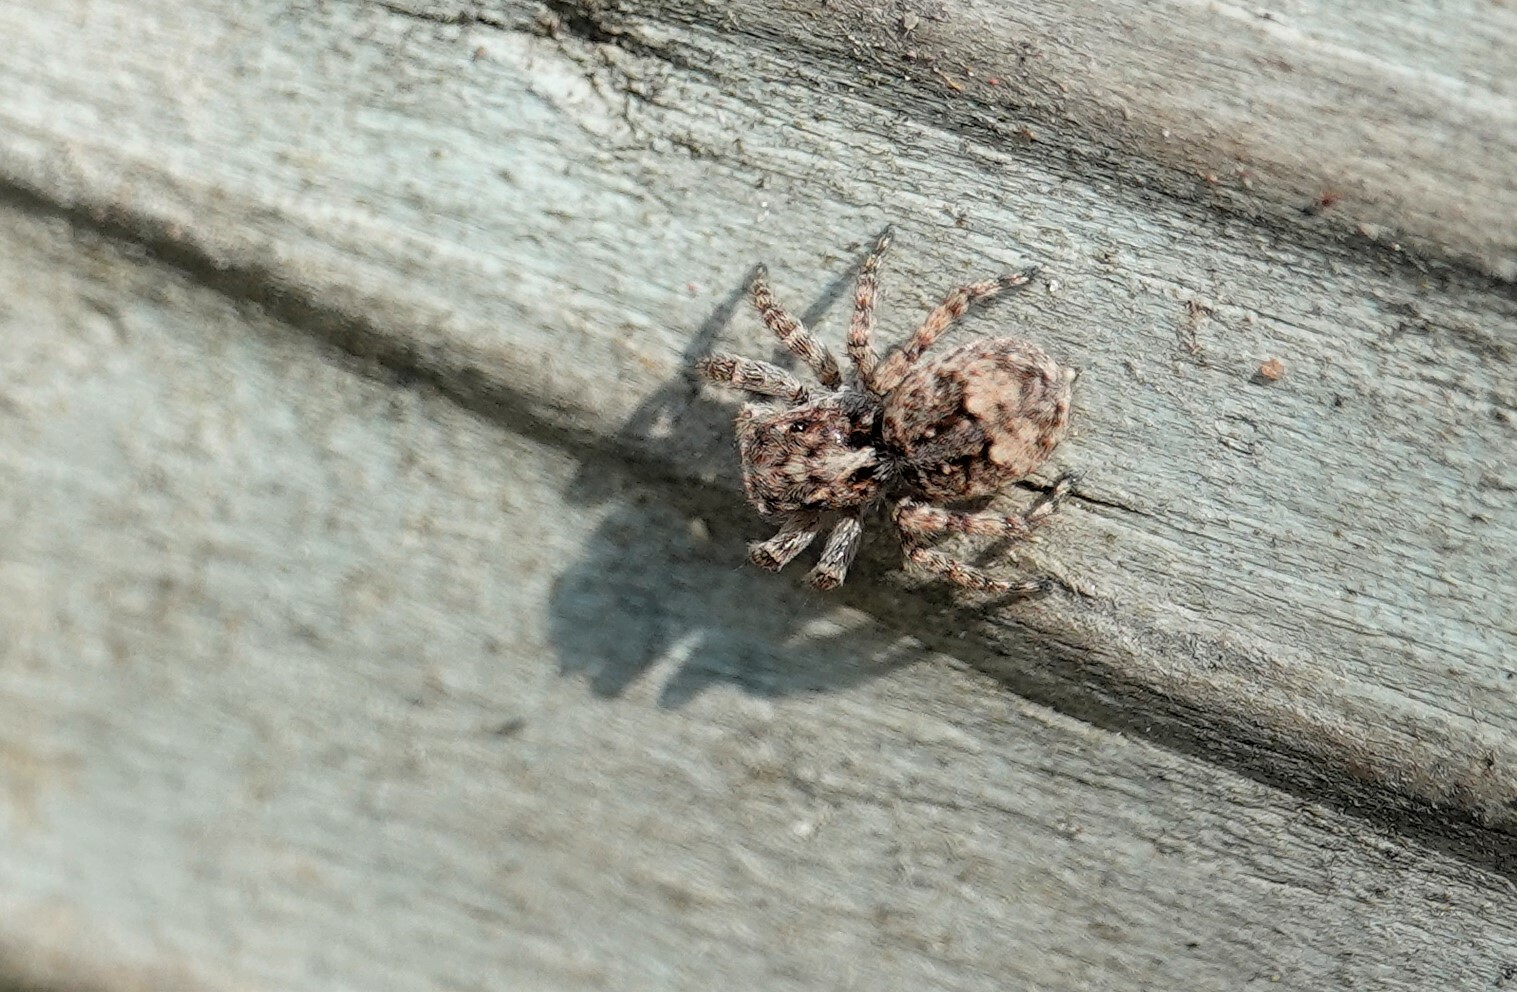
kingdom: Animalia
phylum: Arthropoda
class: Arachnida
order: Araneae
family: Salticidae
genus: Attulus
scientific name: Attulus fasciger
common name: Asiatic wall jumping spider
